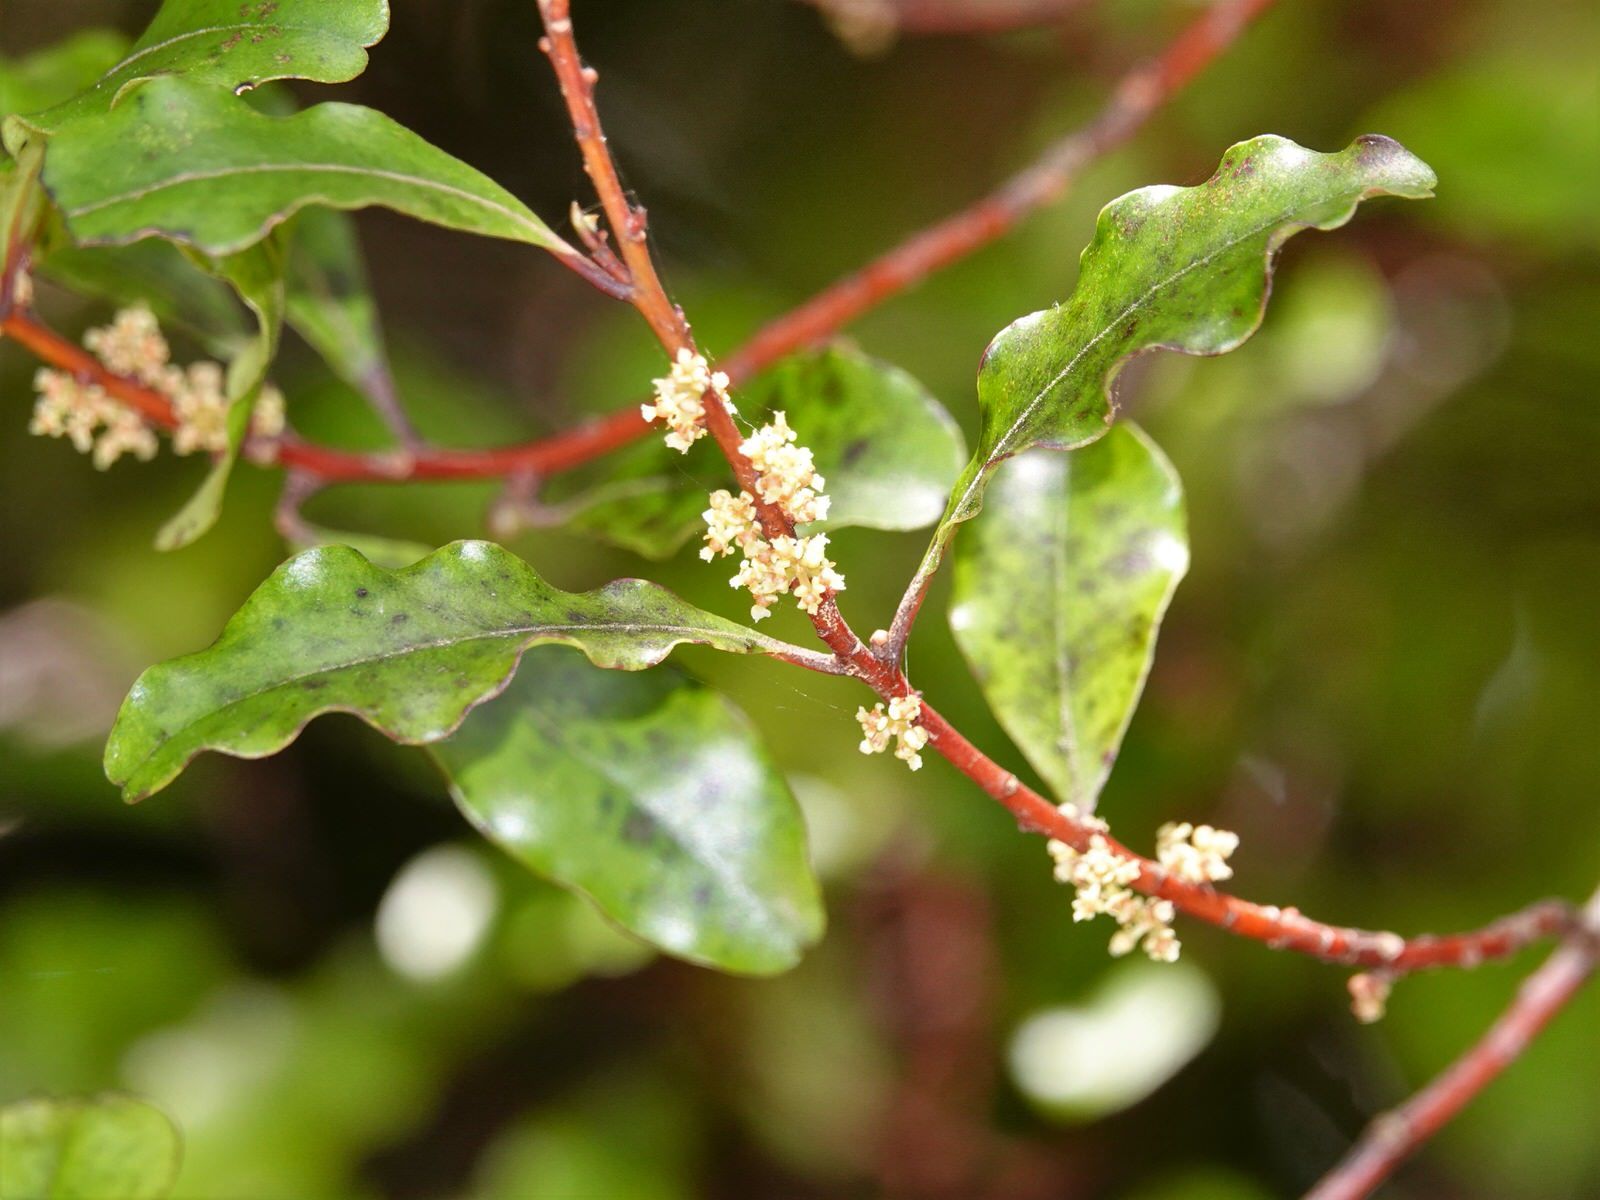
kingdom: Plantae
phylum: Tracheophyta
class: Magnoliopsida
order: Ericales
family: Primulaceae
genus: Myrsine
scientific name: Myrsine australis
